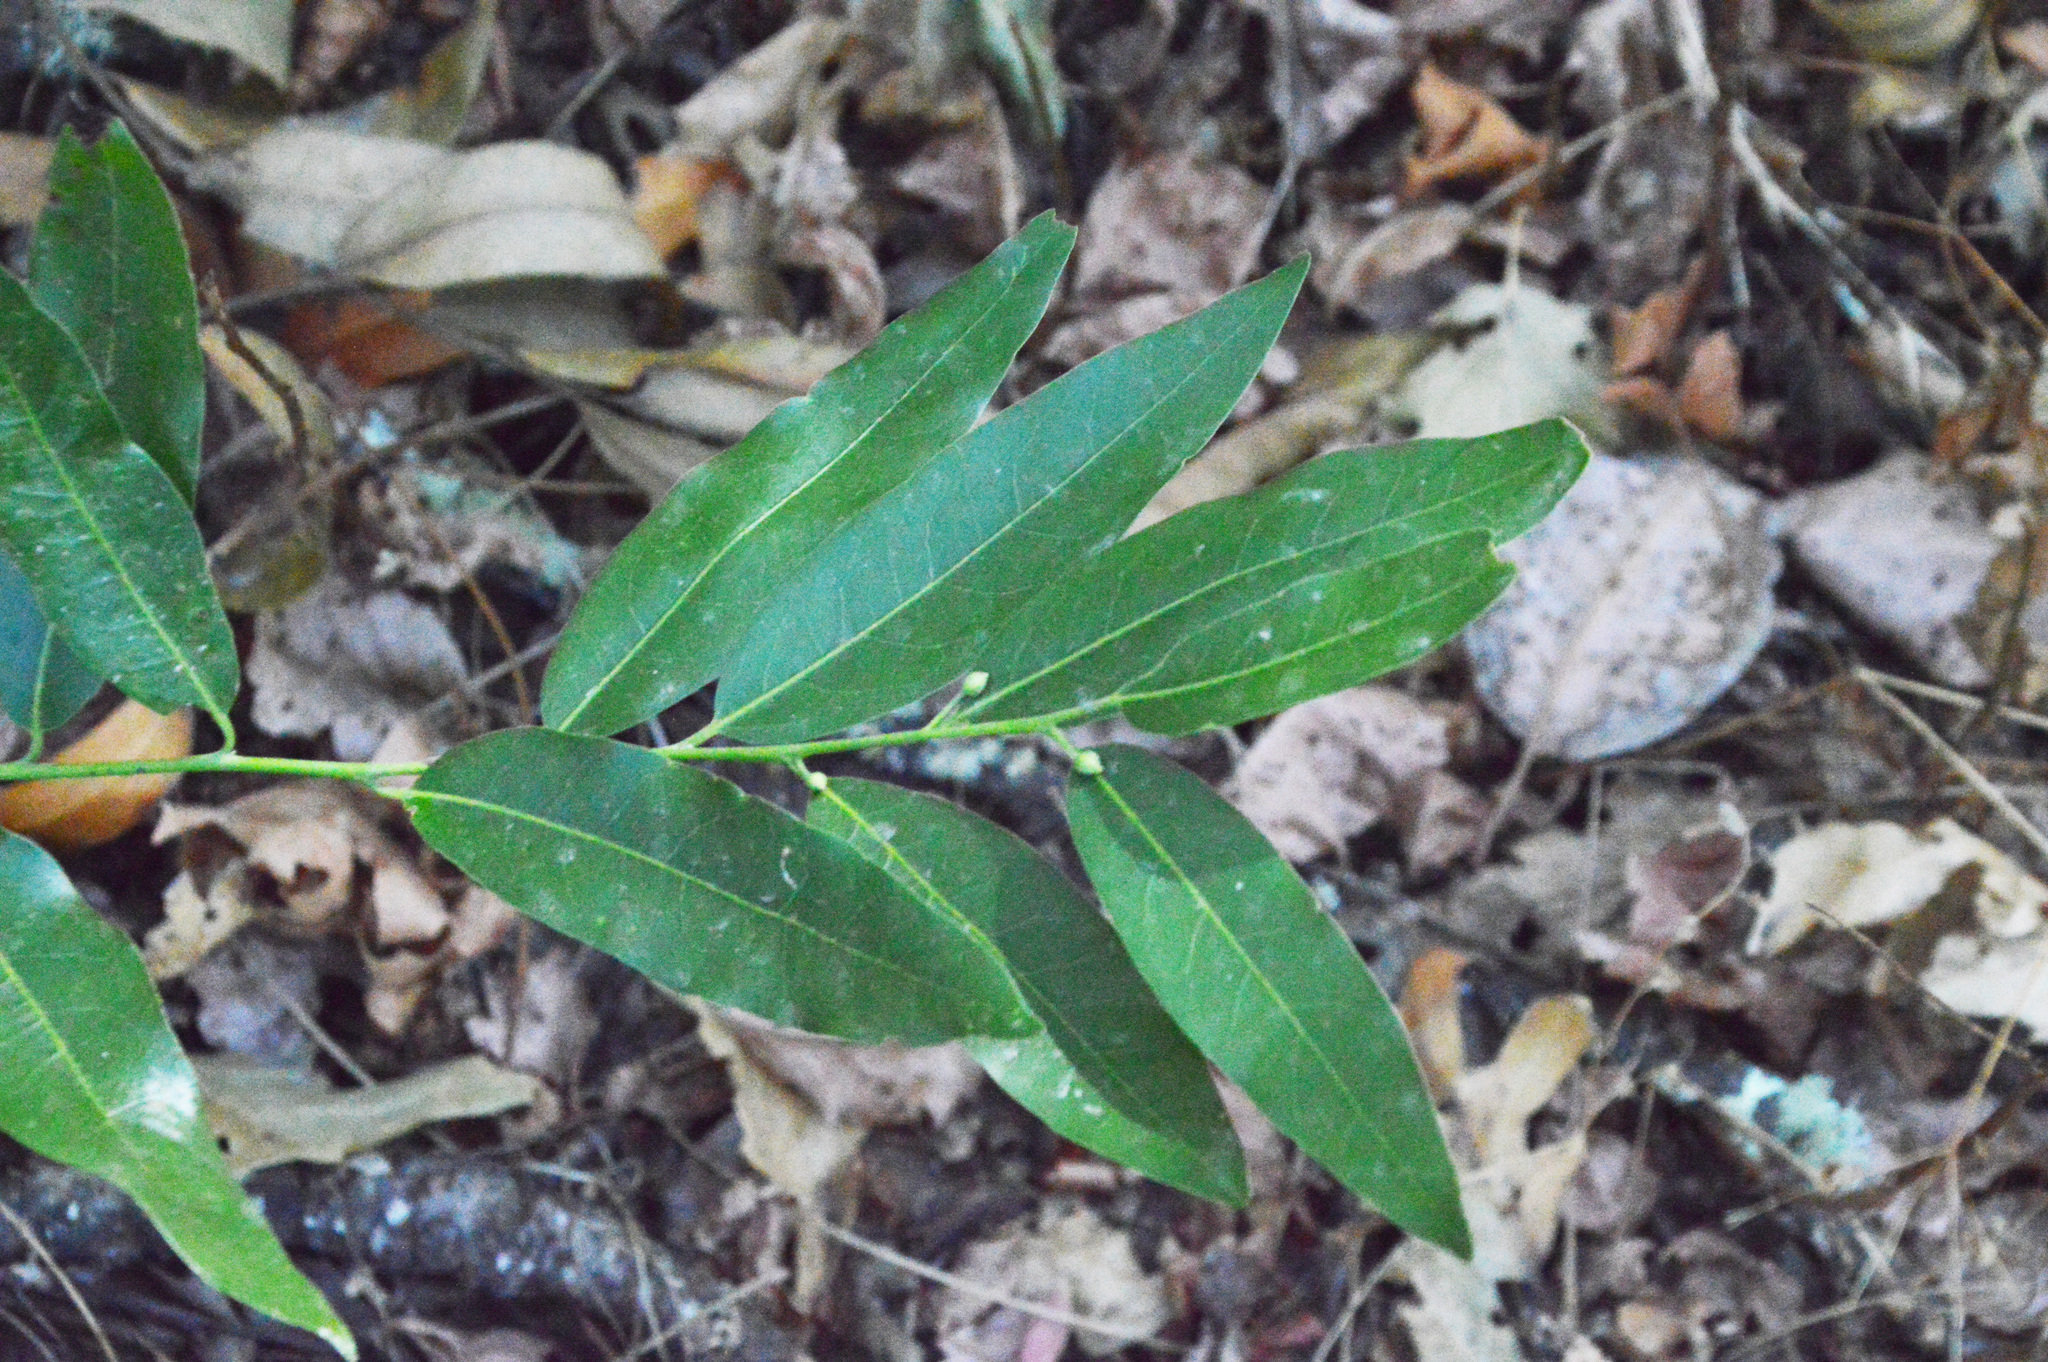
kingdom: Plantae
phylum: Tracheophyta
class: Magnoliopsida
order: Laurales
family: Lauraceae
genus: Umbellularia
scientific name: Umbellularia californica
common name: California bay
